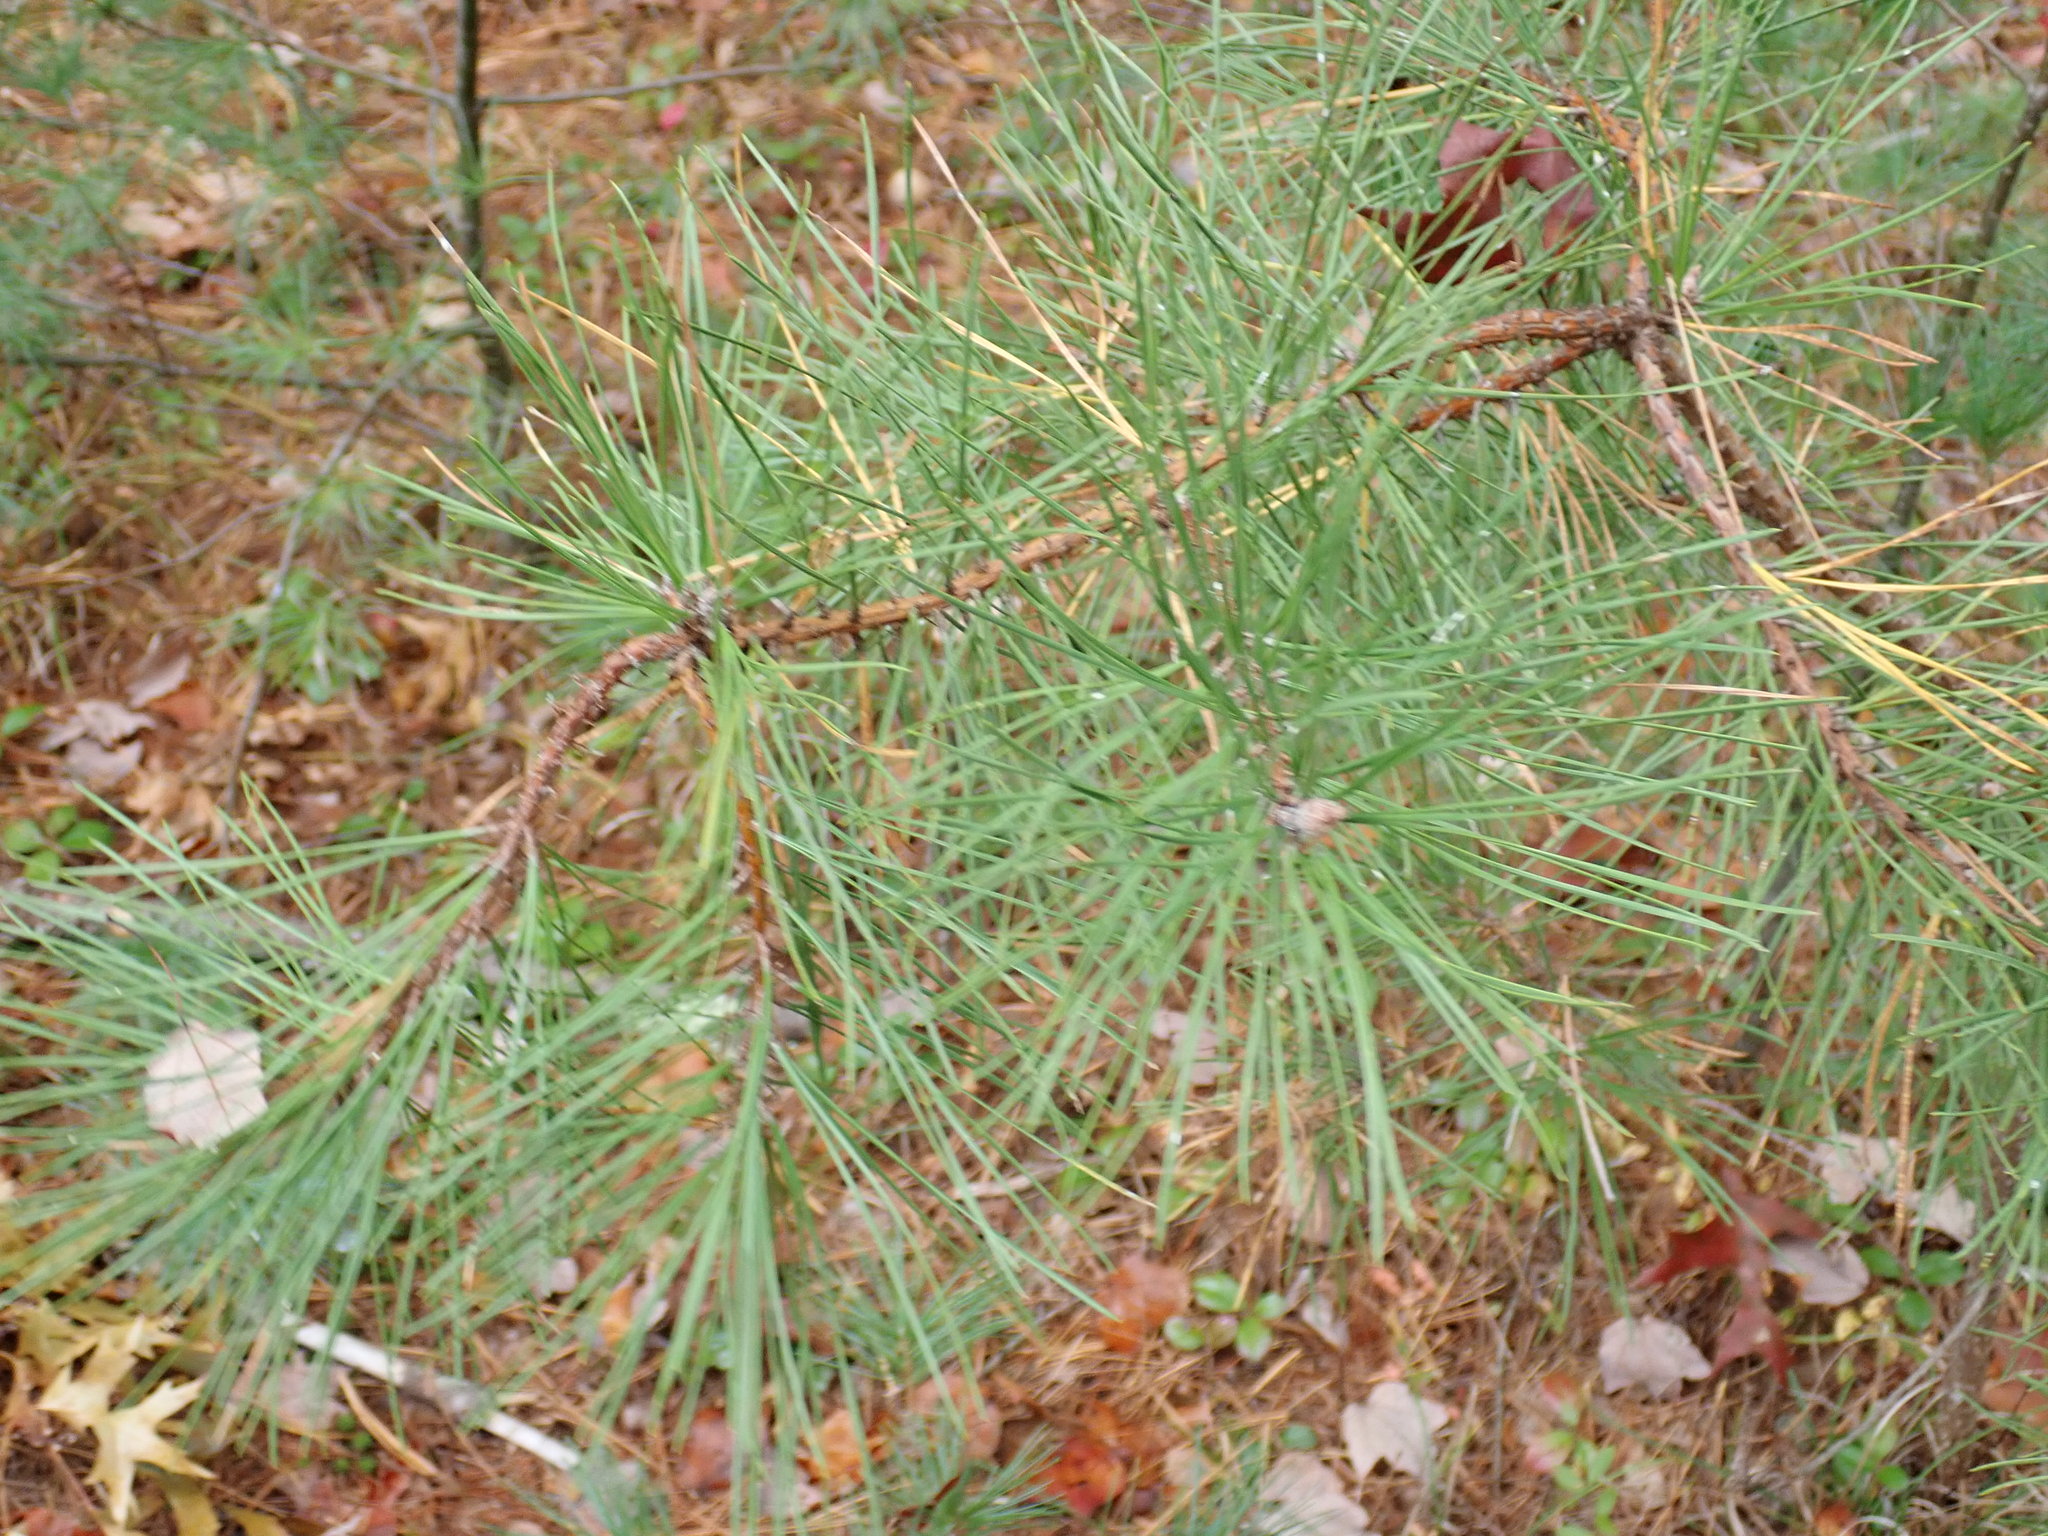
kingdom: Plantae
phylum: Tracheophyta
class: Pinopsida
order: Pinales
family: Pinaceae
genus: Pinus
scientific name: Pinus rigida
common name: Pitch pine
